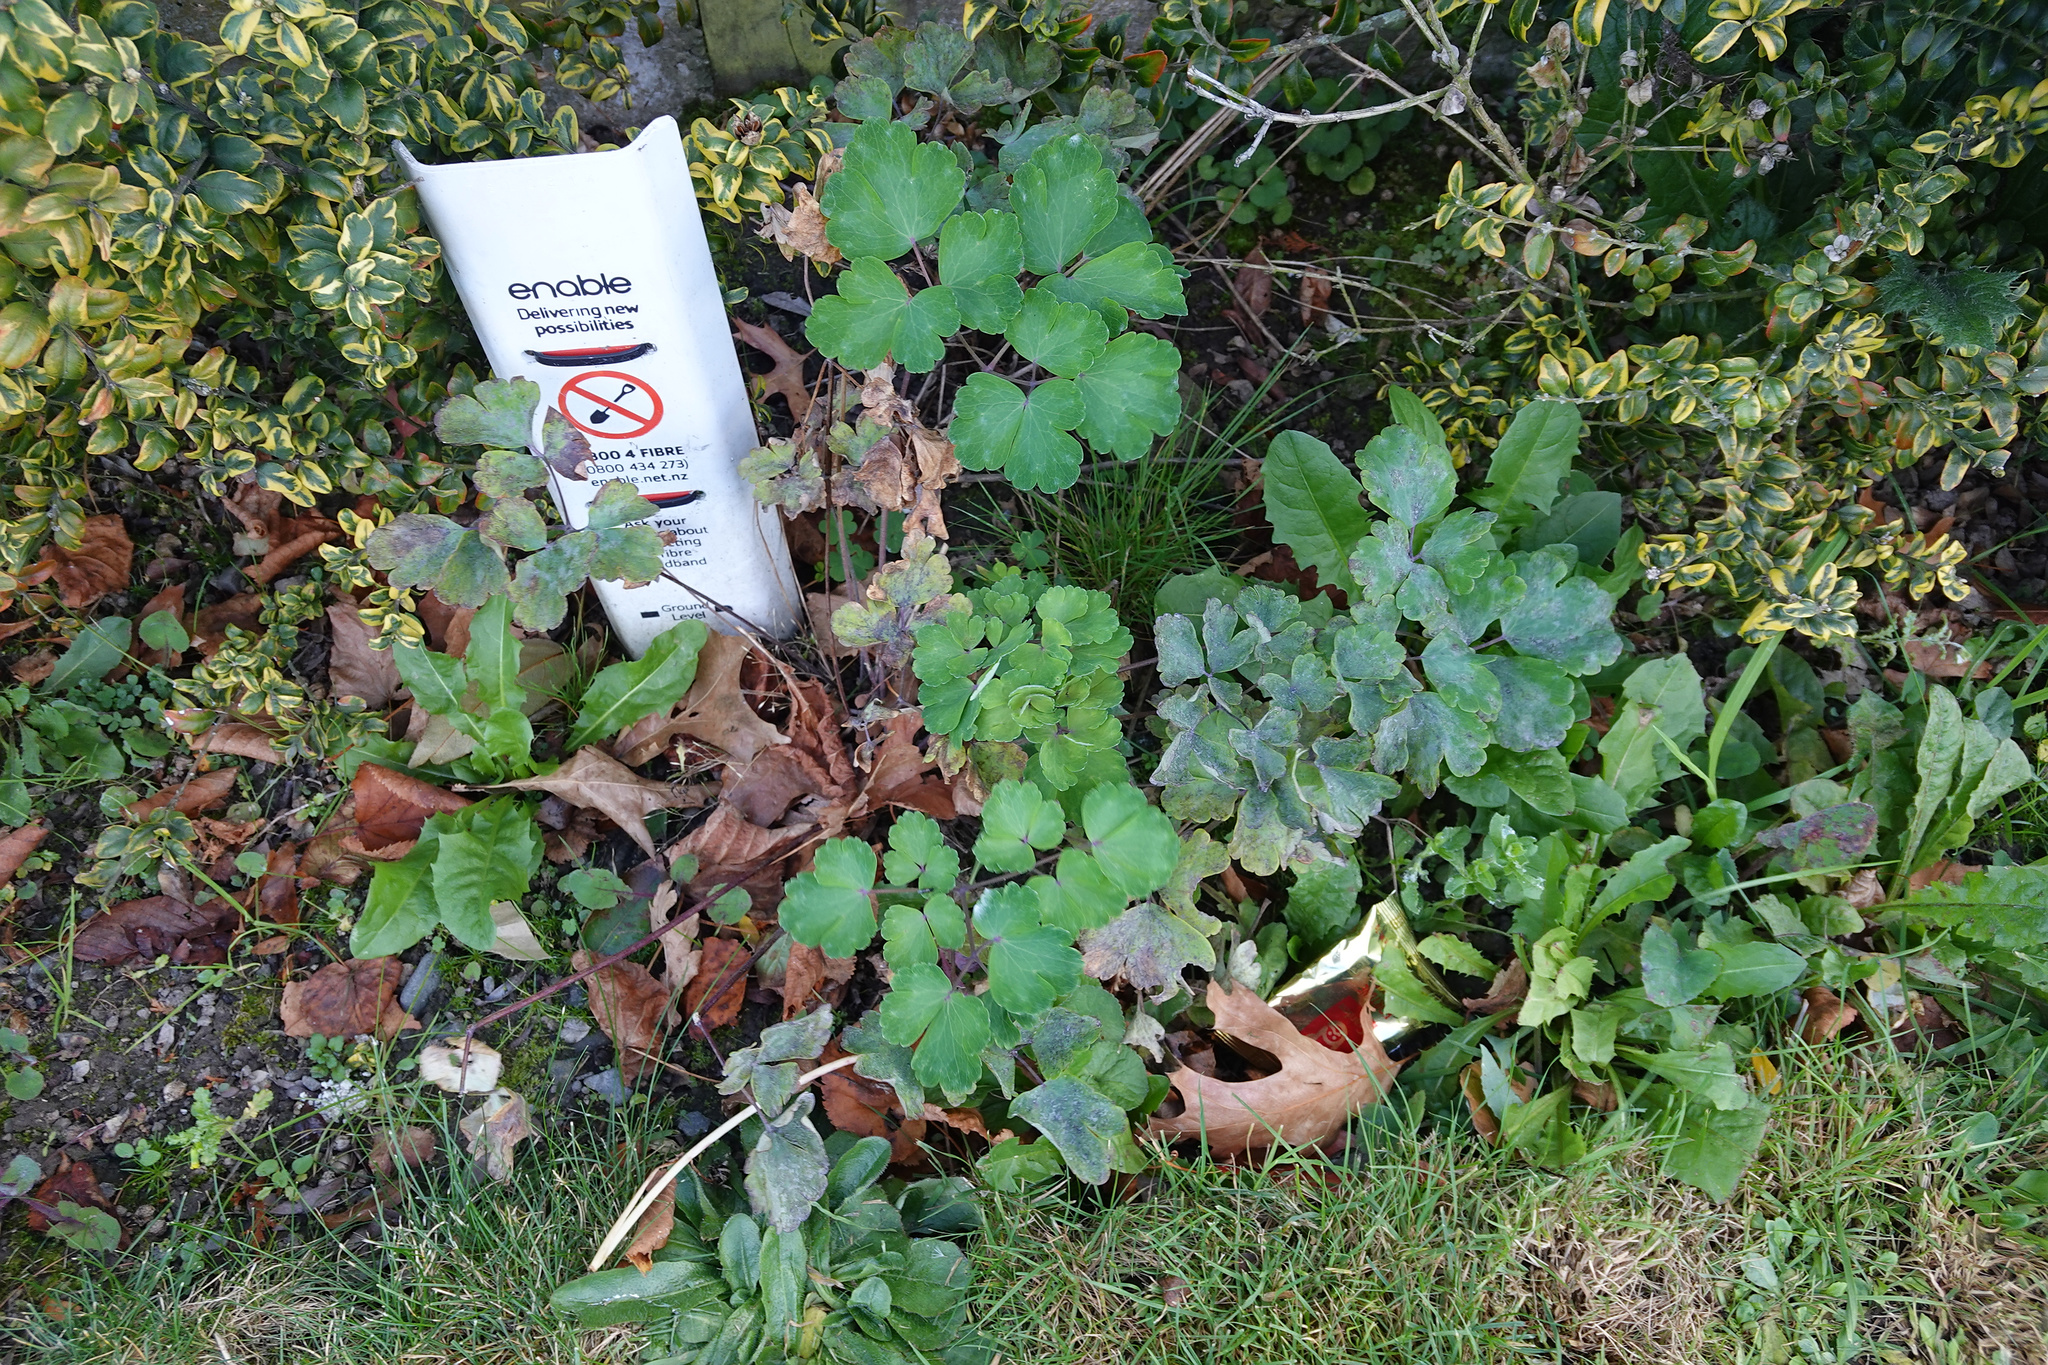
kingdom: Plantae
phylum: Tracheophyta
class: Magnoliopsida
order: Ranunculales
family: Ranunculaceae
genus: Aquilegia
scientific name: Aquilegia vulgaris
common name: Columbine
